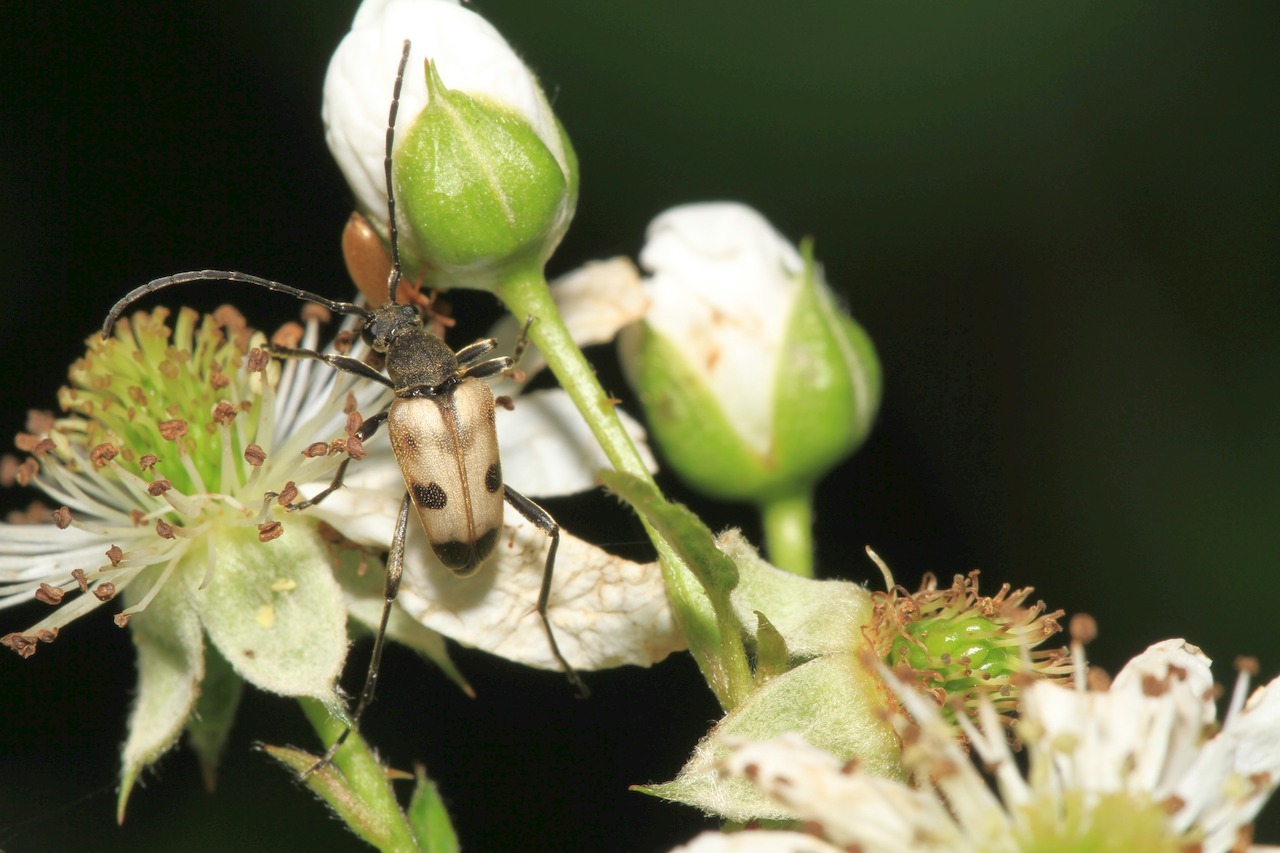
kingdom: Animalia
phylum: Arthropoda
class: Insecta
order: Coleoptera
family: Cerambycidae
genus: Pachytodes
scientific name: Pachytodes cerambyciformis
